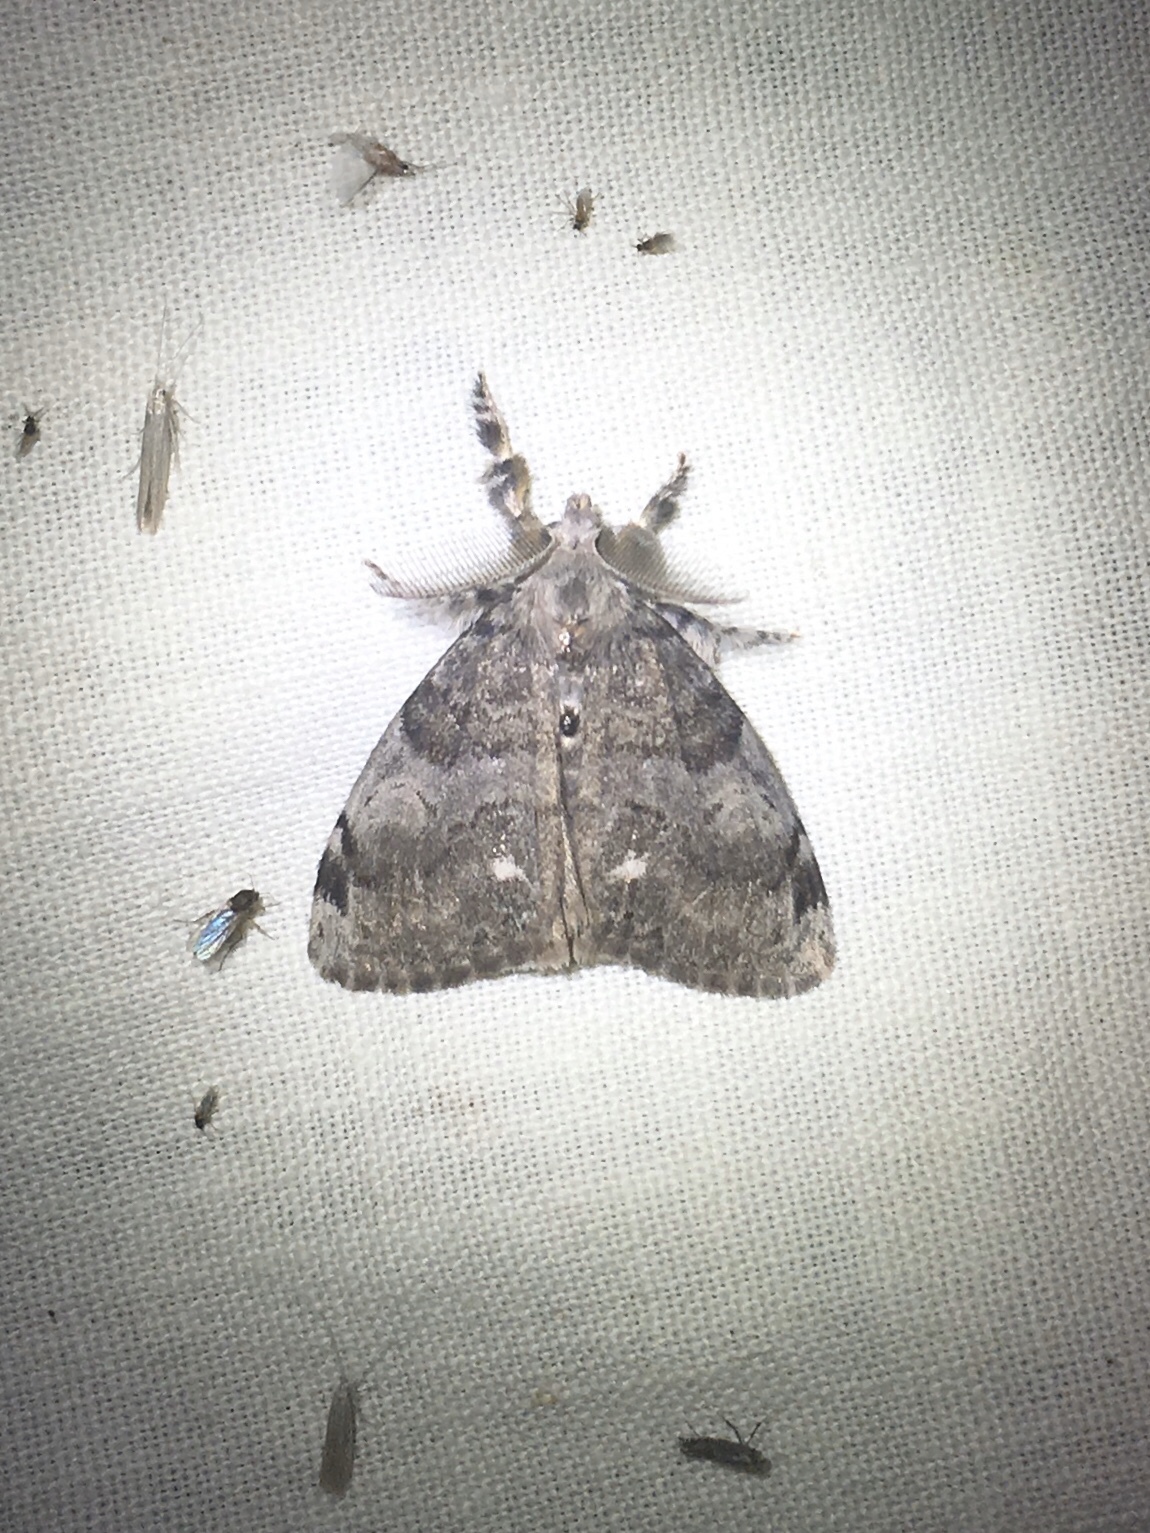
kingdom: Animalia
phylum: Arthropoda
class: Insecta
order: Lepidoptera
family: Erebidae
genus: Orgyia
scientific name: Orgyia leucostigma
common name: White-marked tussock moth
